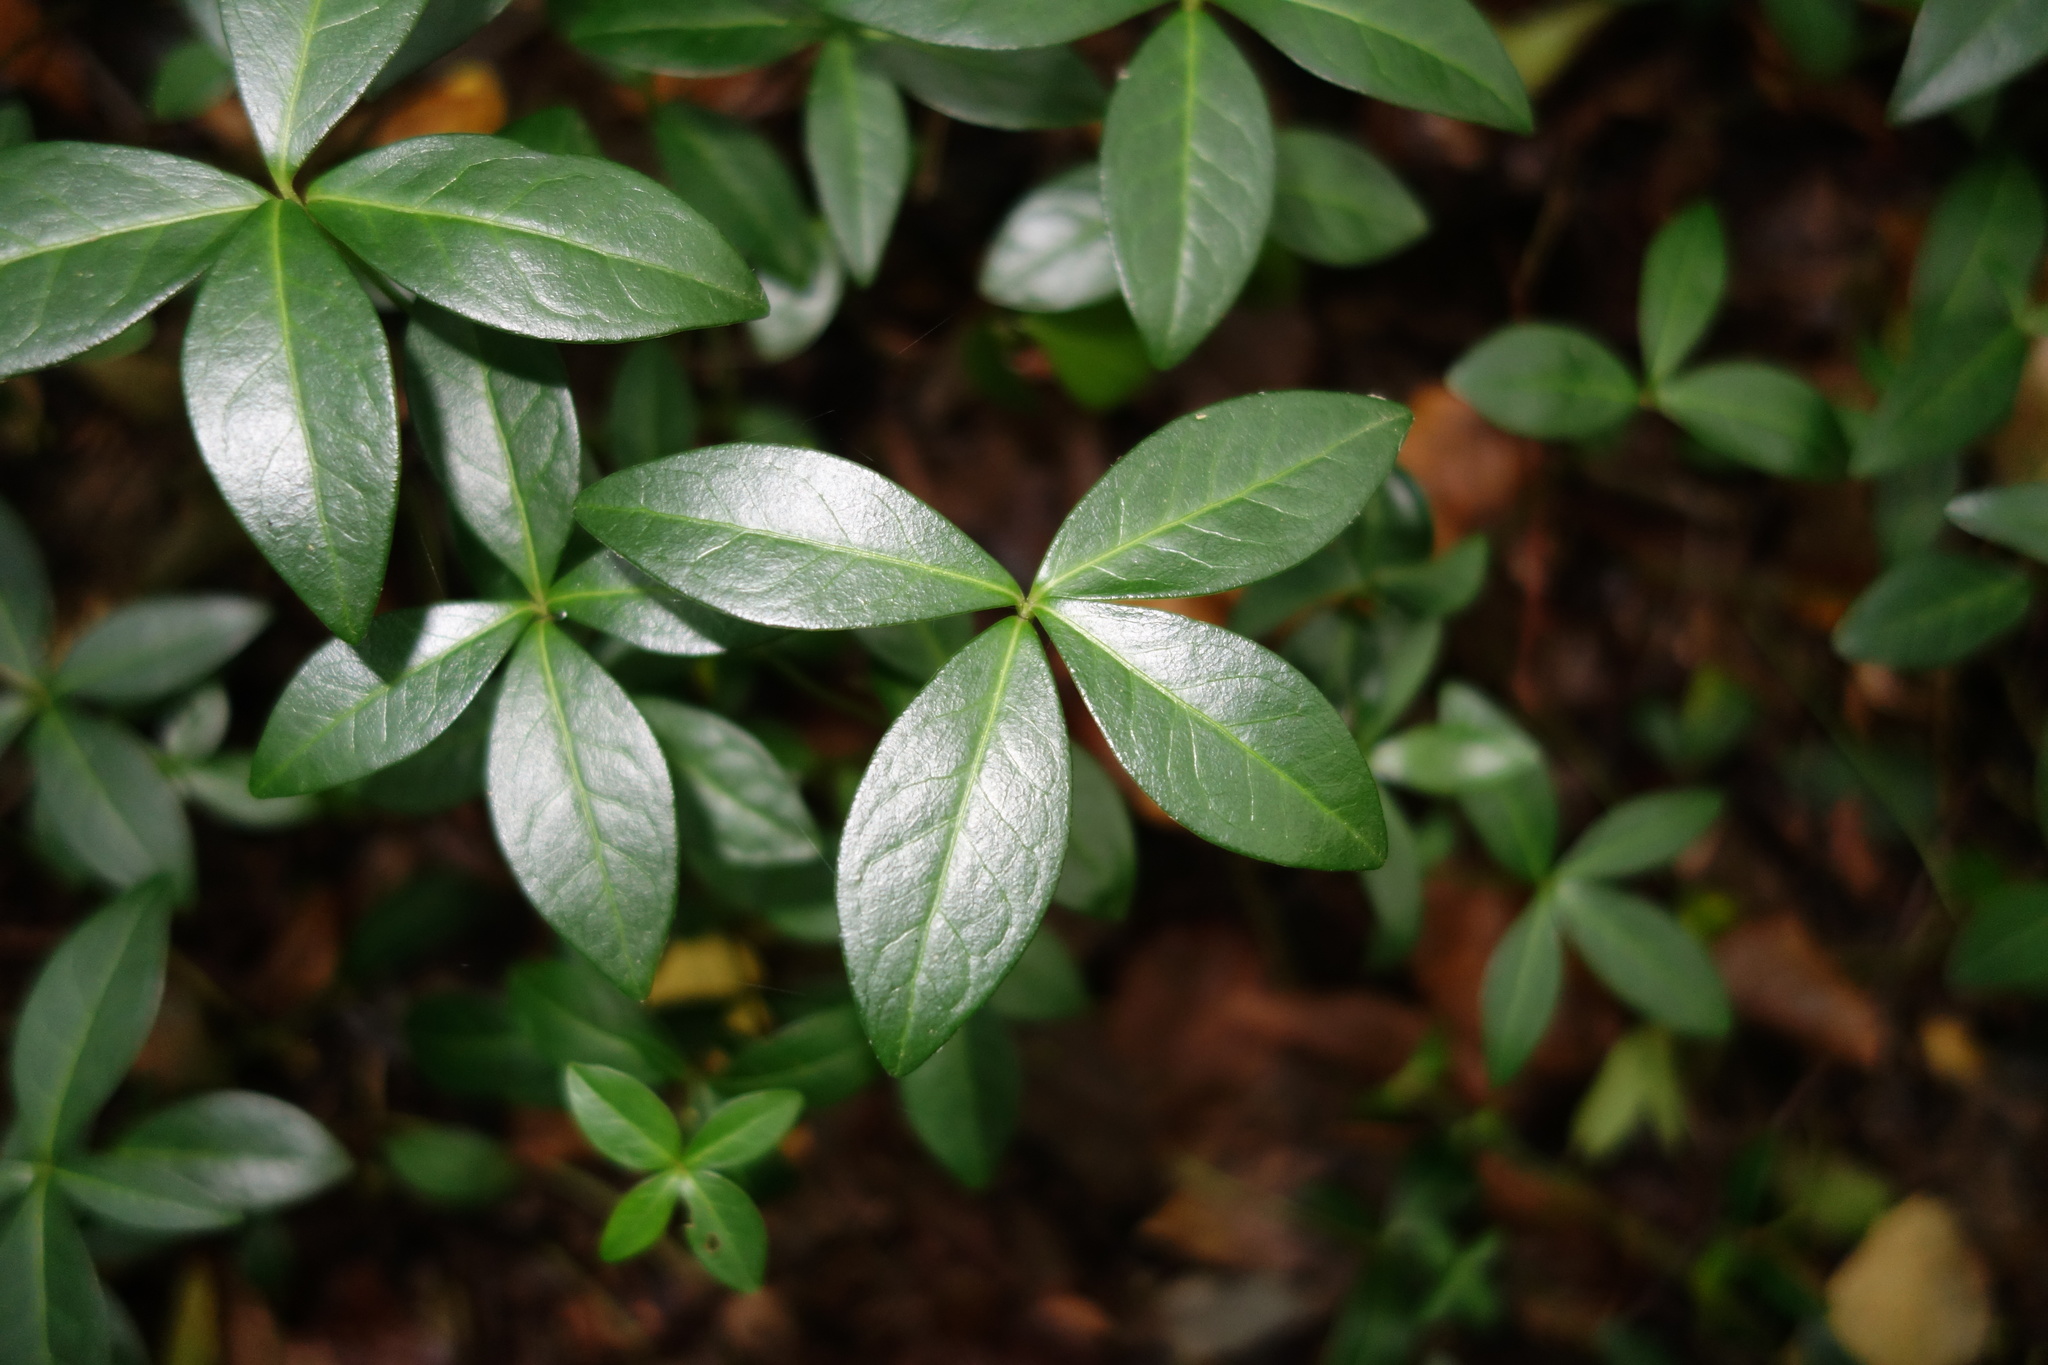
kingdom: Plantae
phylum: Tracheophyta
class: Magnoliopsida
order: Gentianales
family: Apocynaceae
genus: Vinca
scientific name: Vinca minor
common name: Lesser periwinkle
